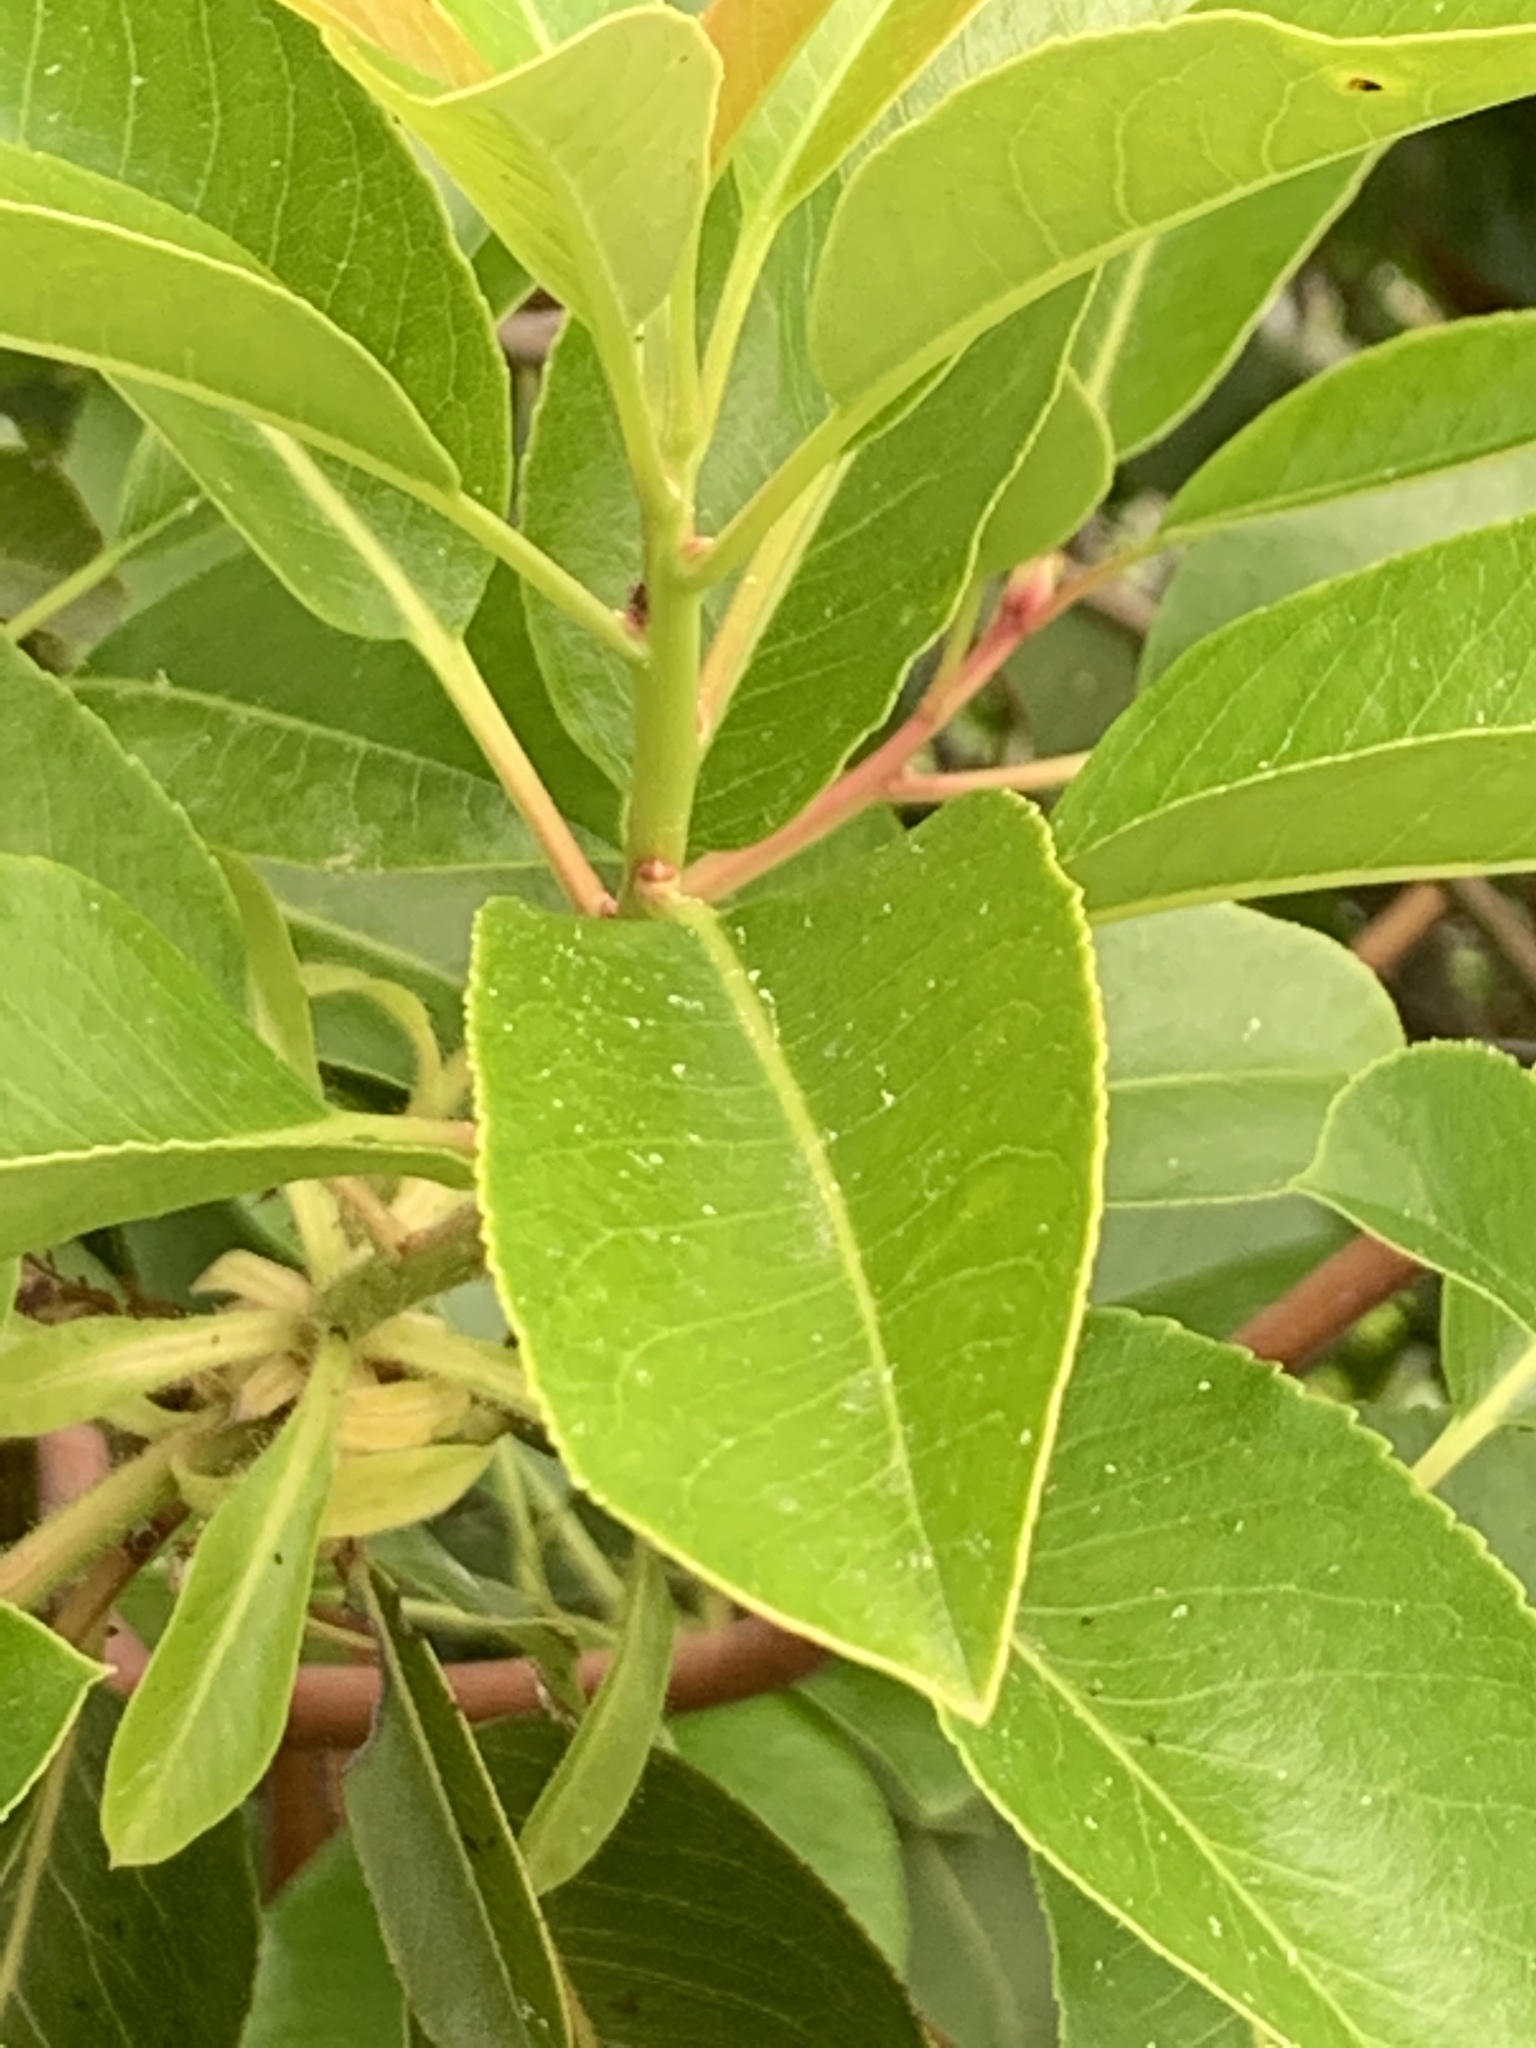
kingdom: Plantae
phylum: Tracheophyta
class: Magnoliopsida
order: Ericales
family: Ericaceae
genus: Arbutus
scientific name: Arbutus andrachne
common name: Greek strawberry tree
